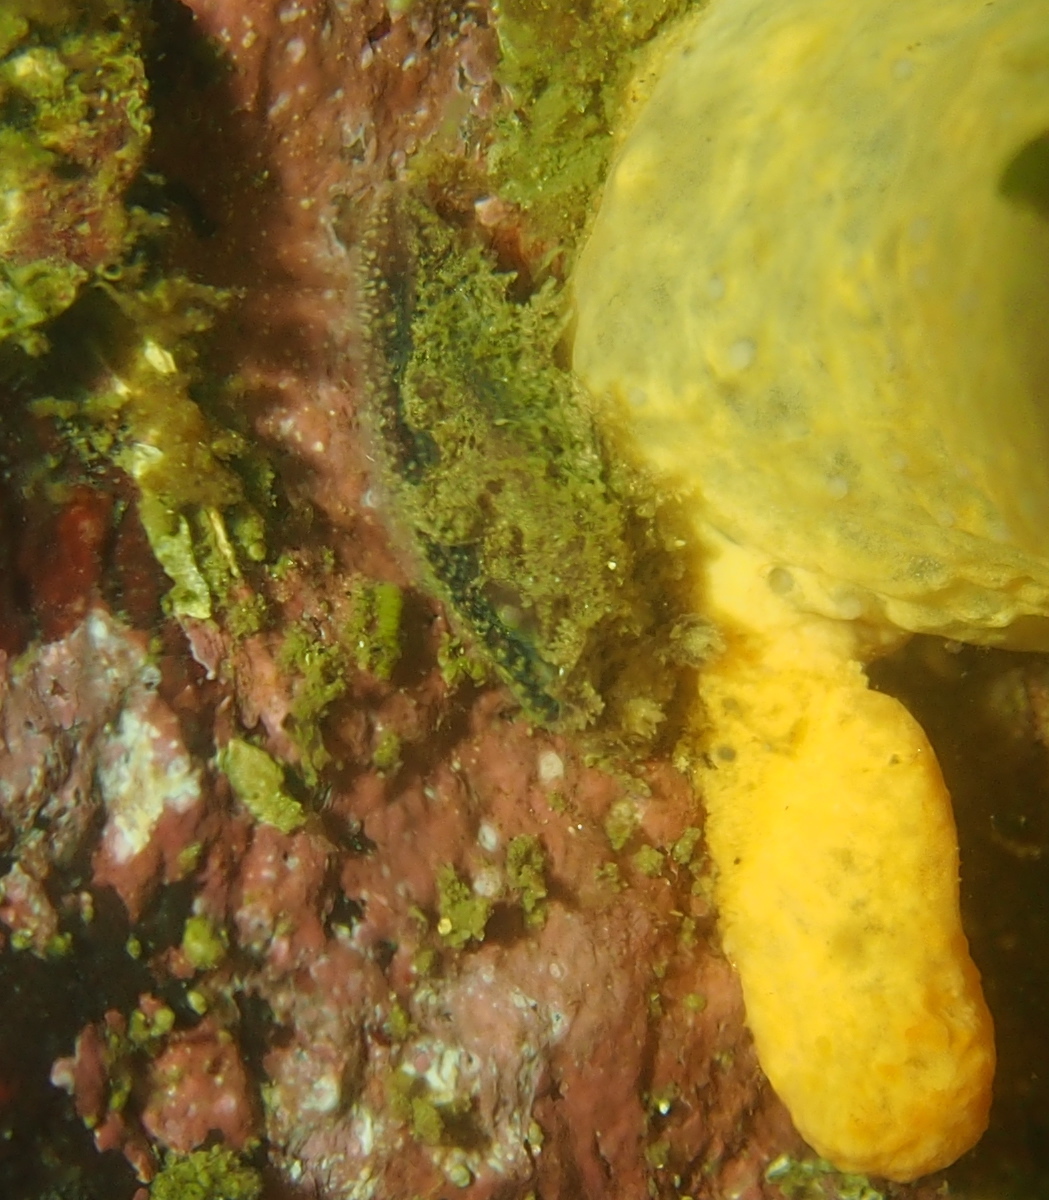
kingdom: Animalia
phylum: Mollusca
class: Gastropoda
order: Nudibranchia
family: Tritoniidae
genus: Duvaucelia
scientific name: Duvaucelia plebeia
